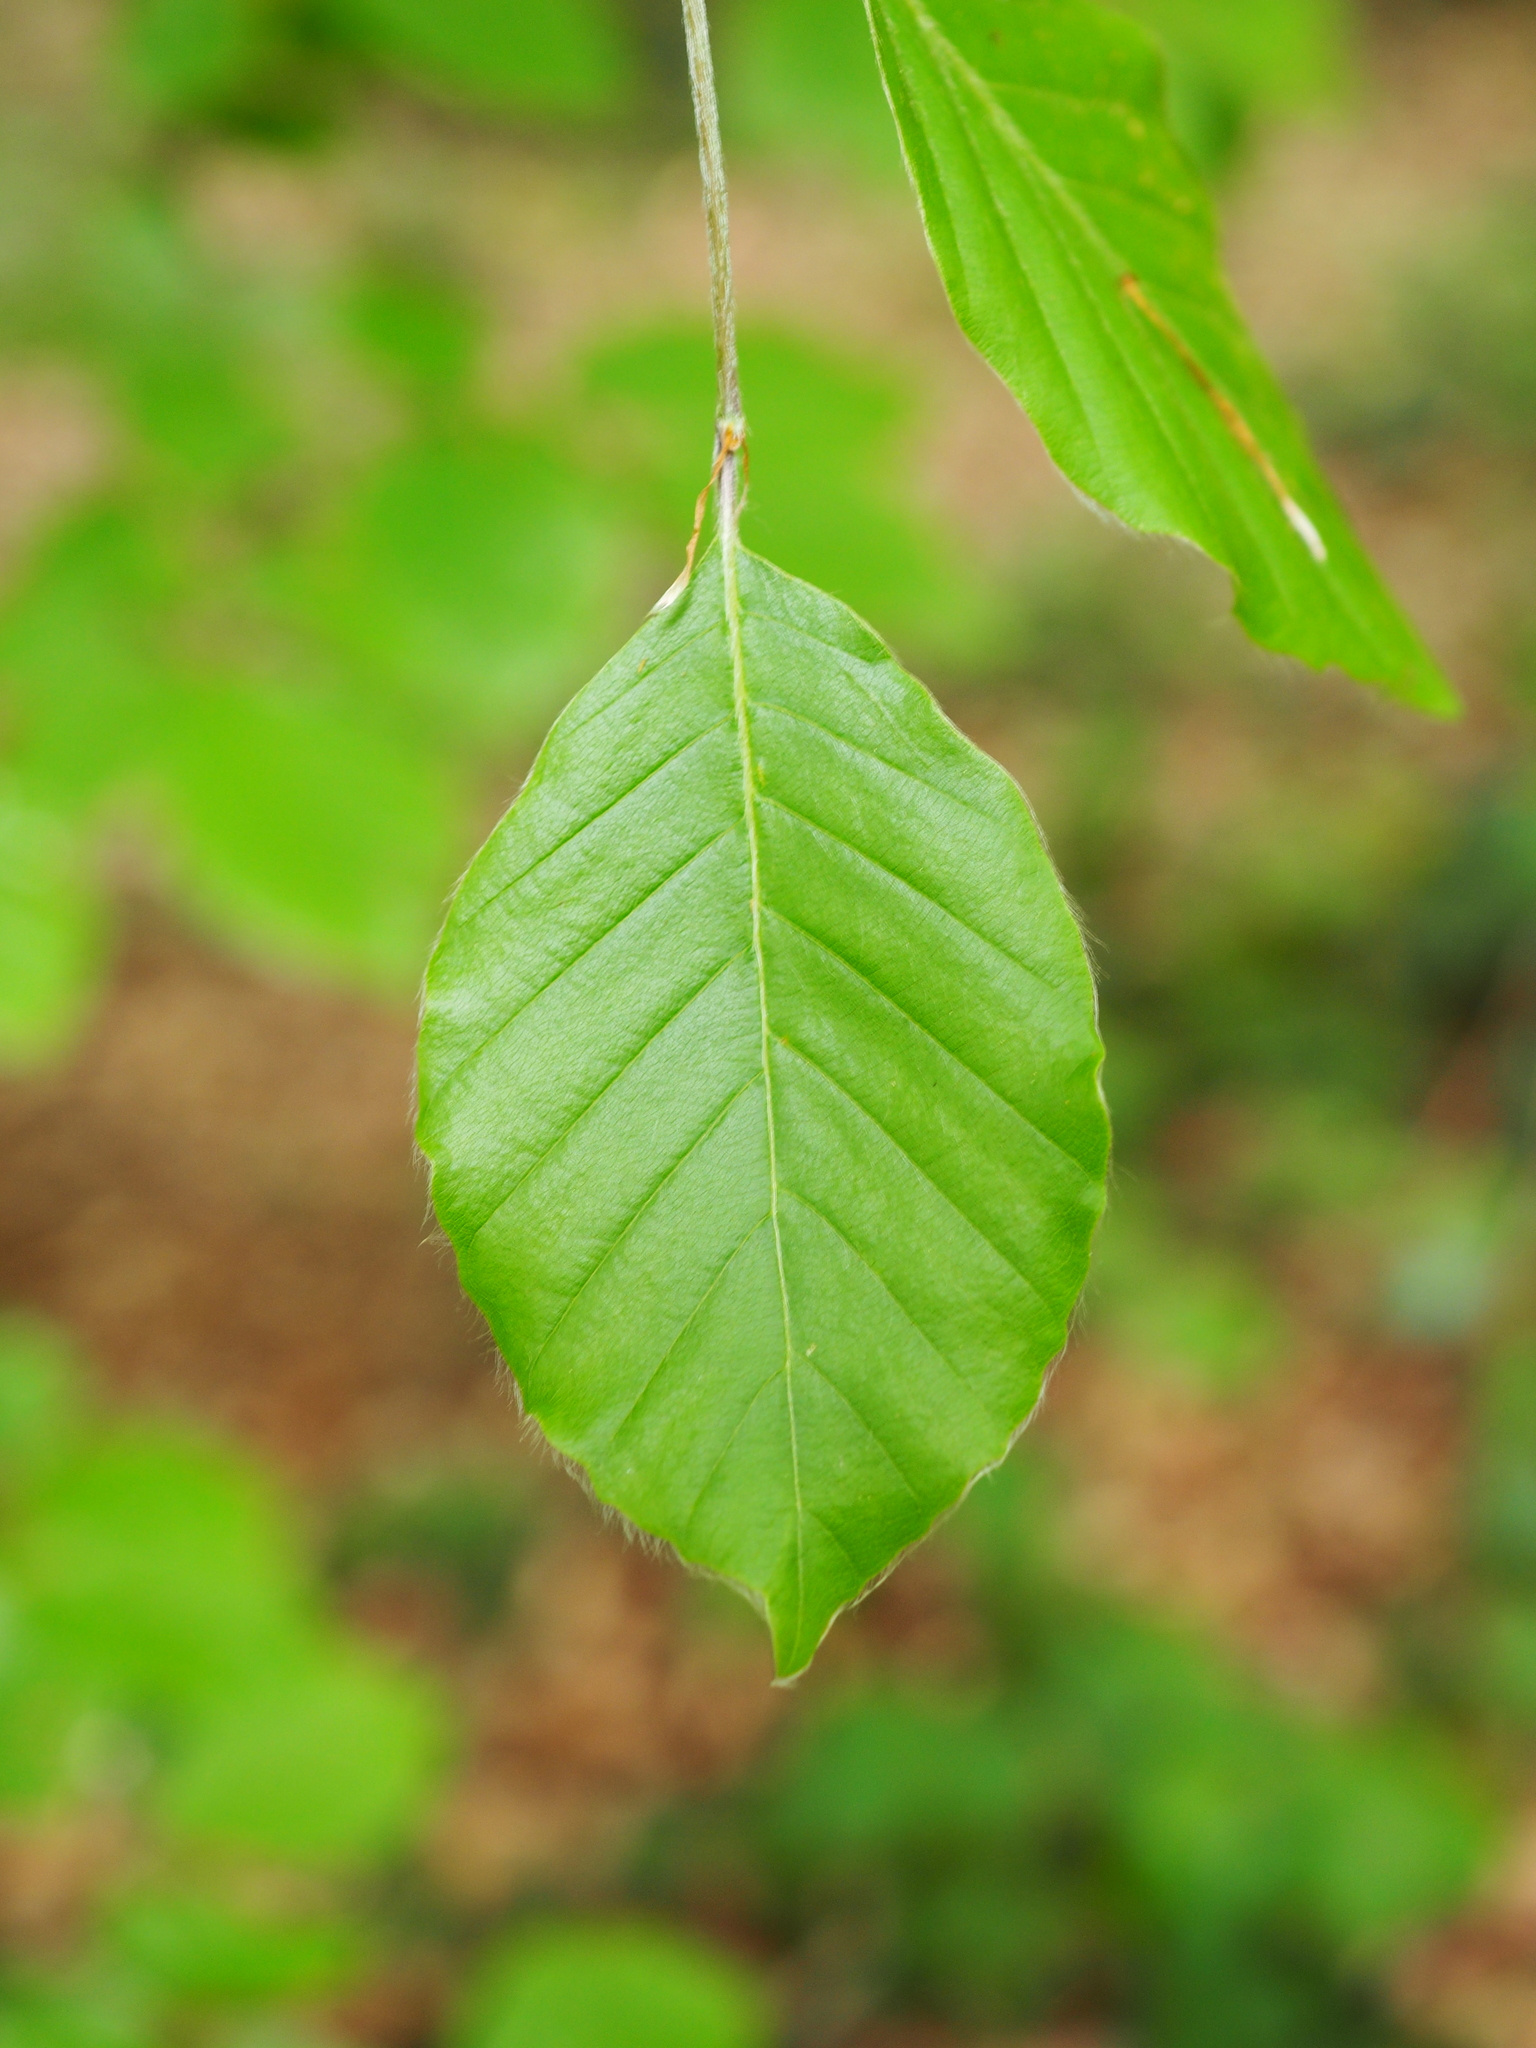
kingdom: Plantae
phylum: Tracheophyta
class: Magnoliopsida
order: Fagales
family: Fagaceae
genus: Fagus
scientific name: Fagus sylvatica
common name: Beech
